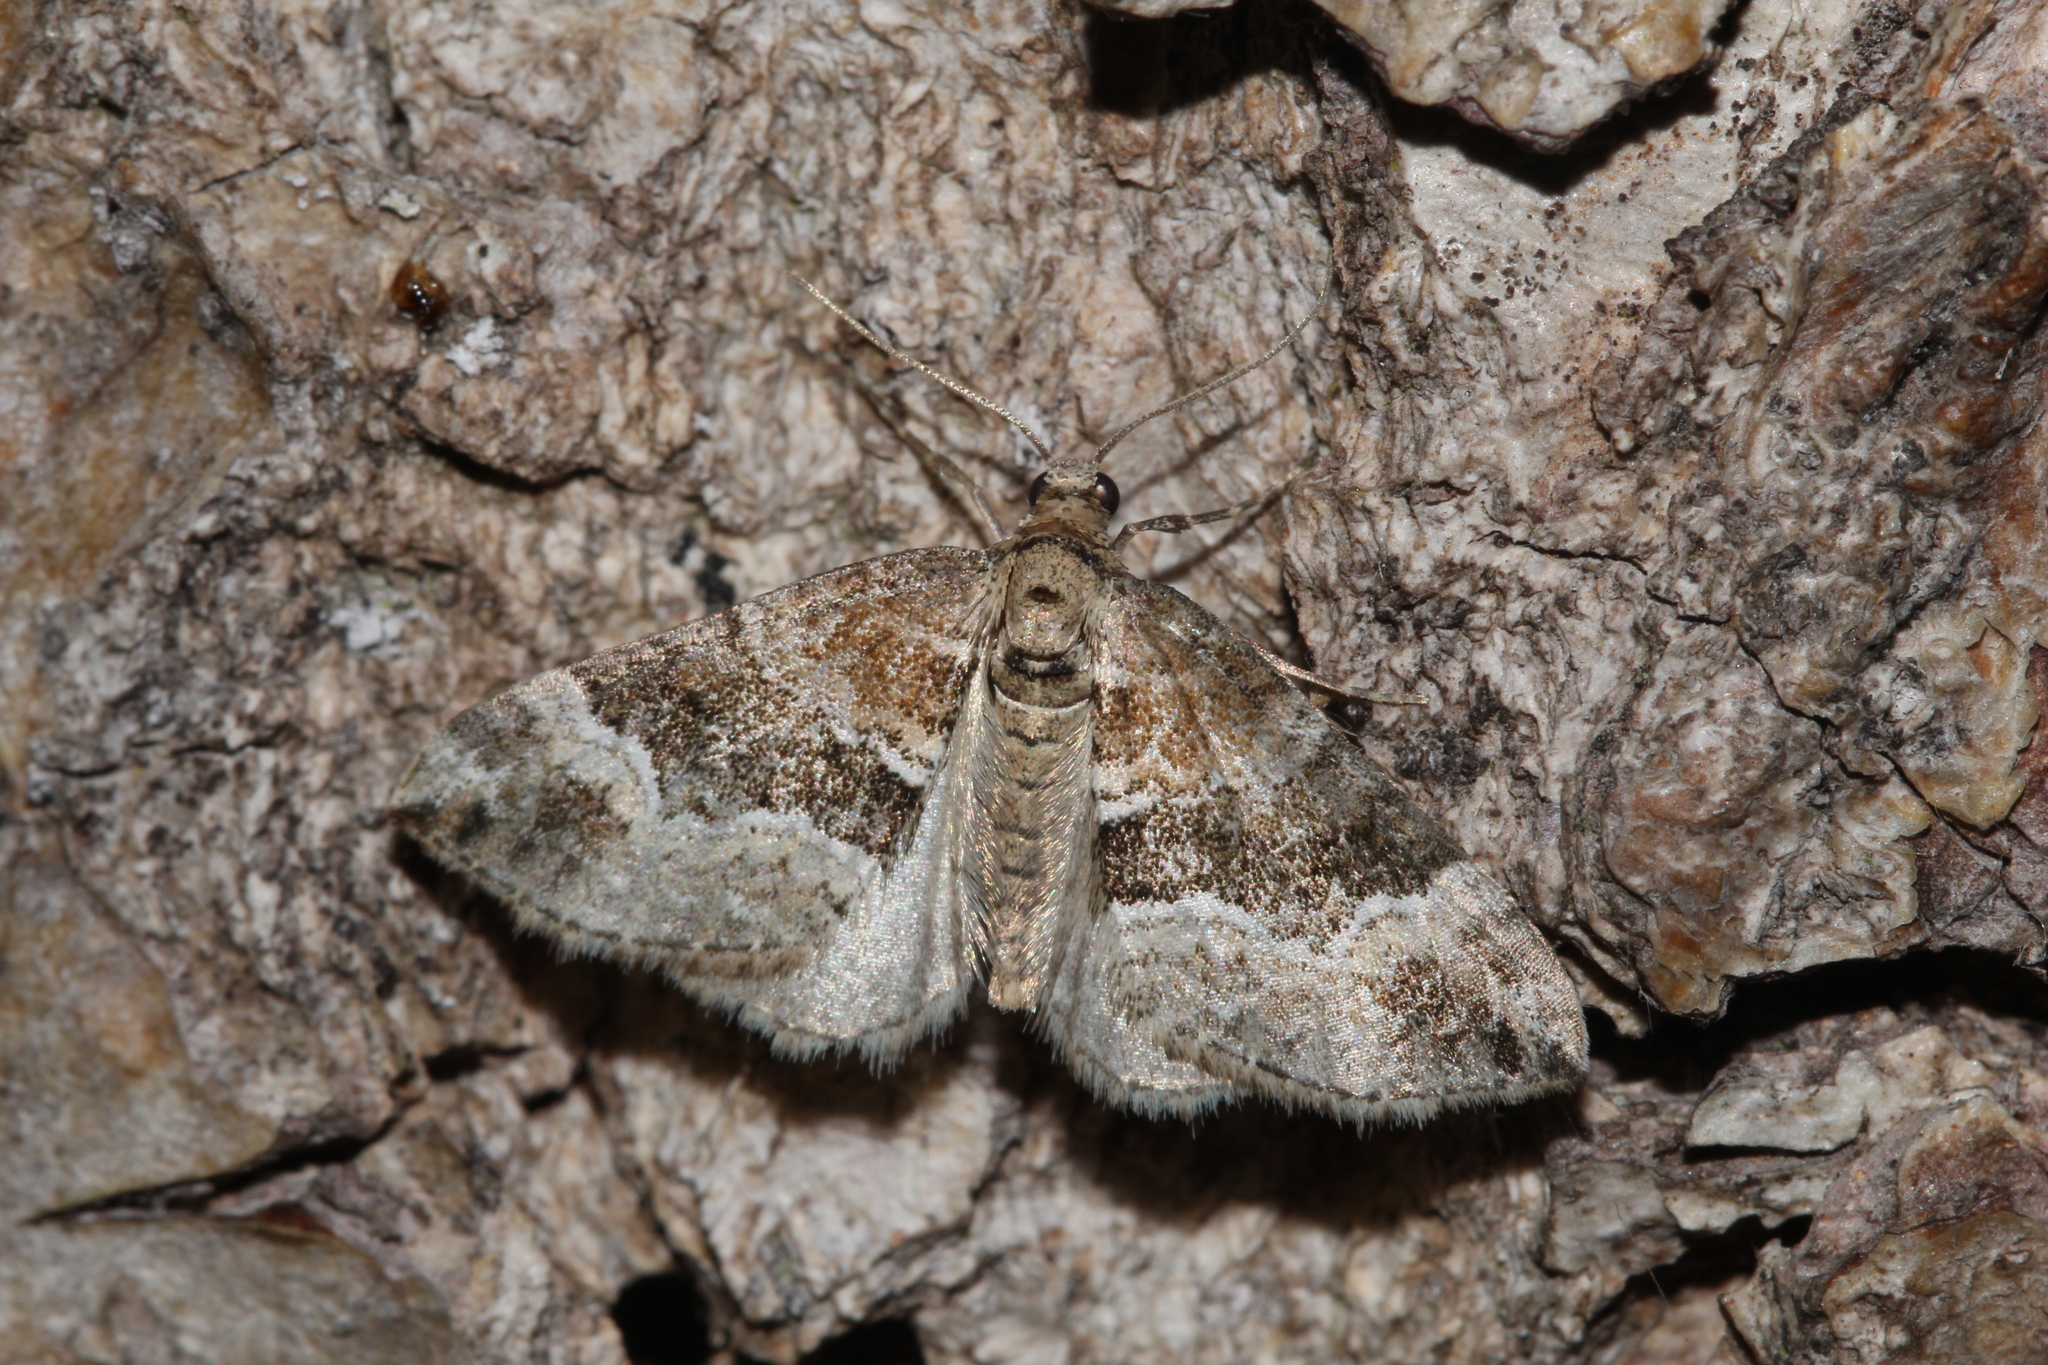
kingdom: Animalia
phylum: Arthropoda
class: Insecta
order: Lepidoptera
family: Geometridae
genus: Epirrhoe
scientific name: Epirrhoe alternata
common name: Common carpet
